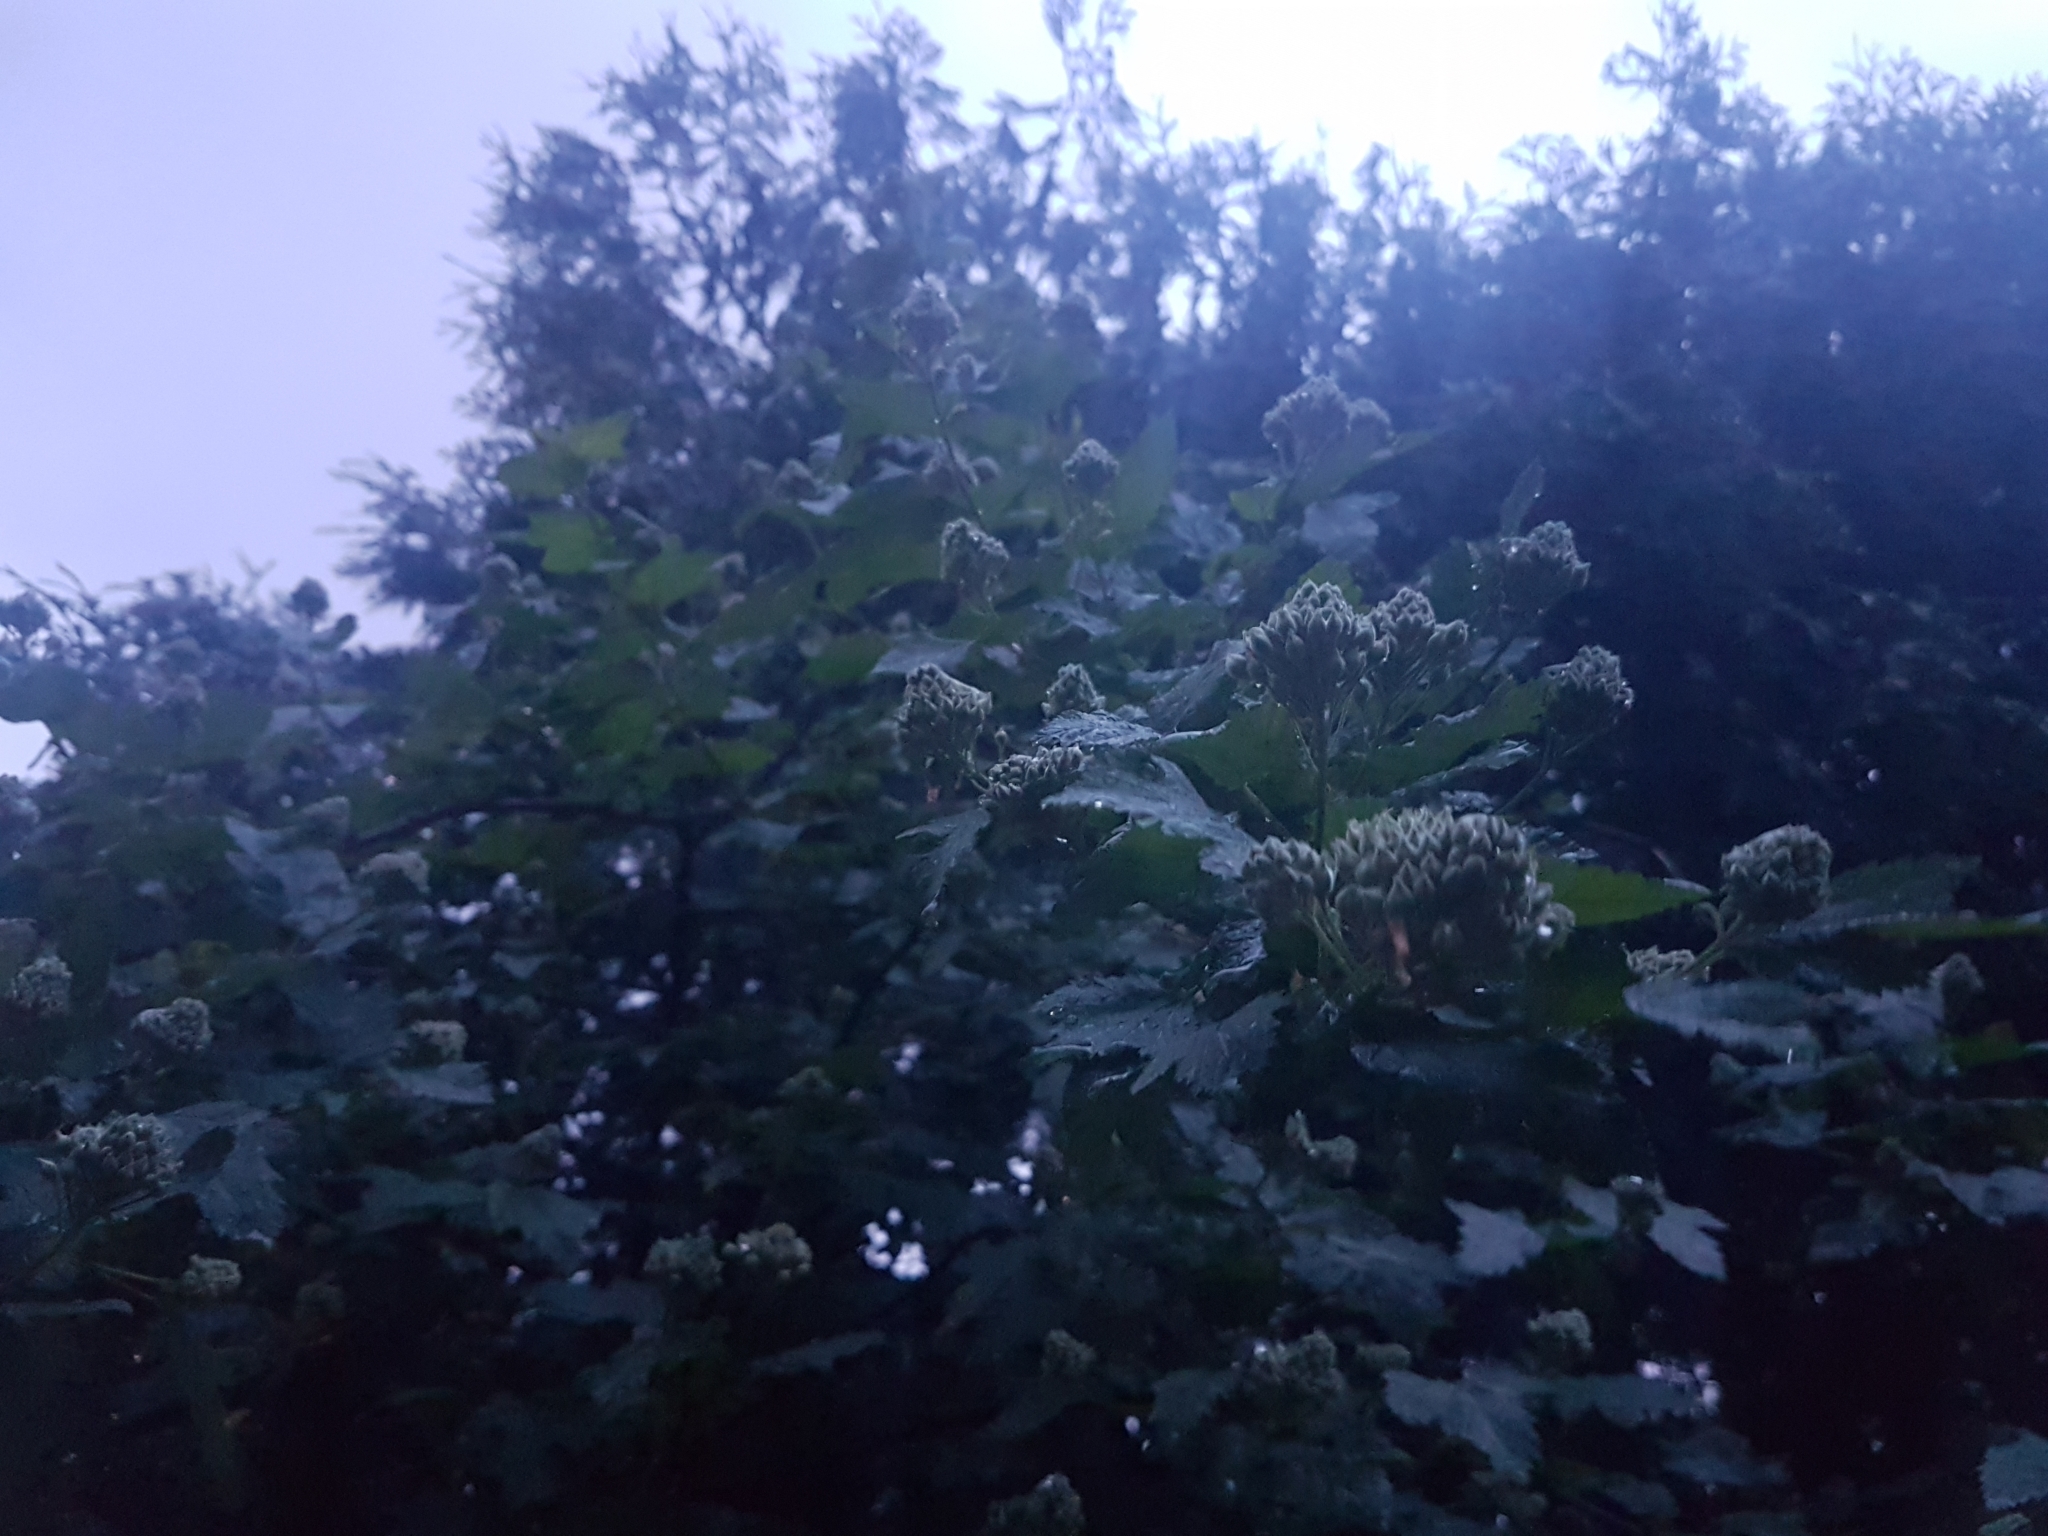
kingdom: Plantae
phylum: Tracheophyta
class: Magnoliopsida
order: Rosales
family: Rosaceae
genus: Physocarpus
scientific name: Physocarpus capitatus
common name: Pacific ninebark
